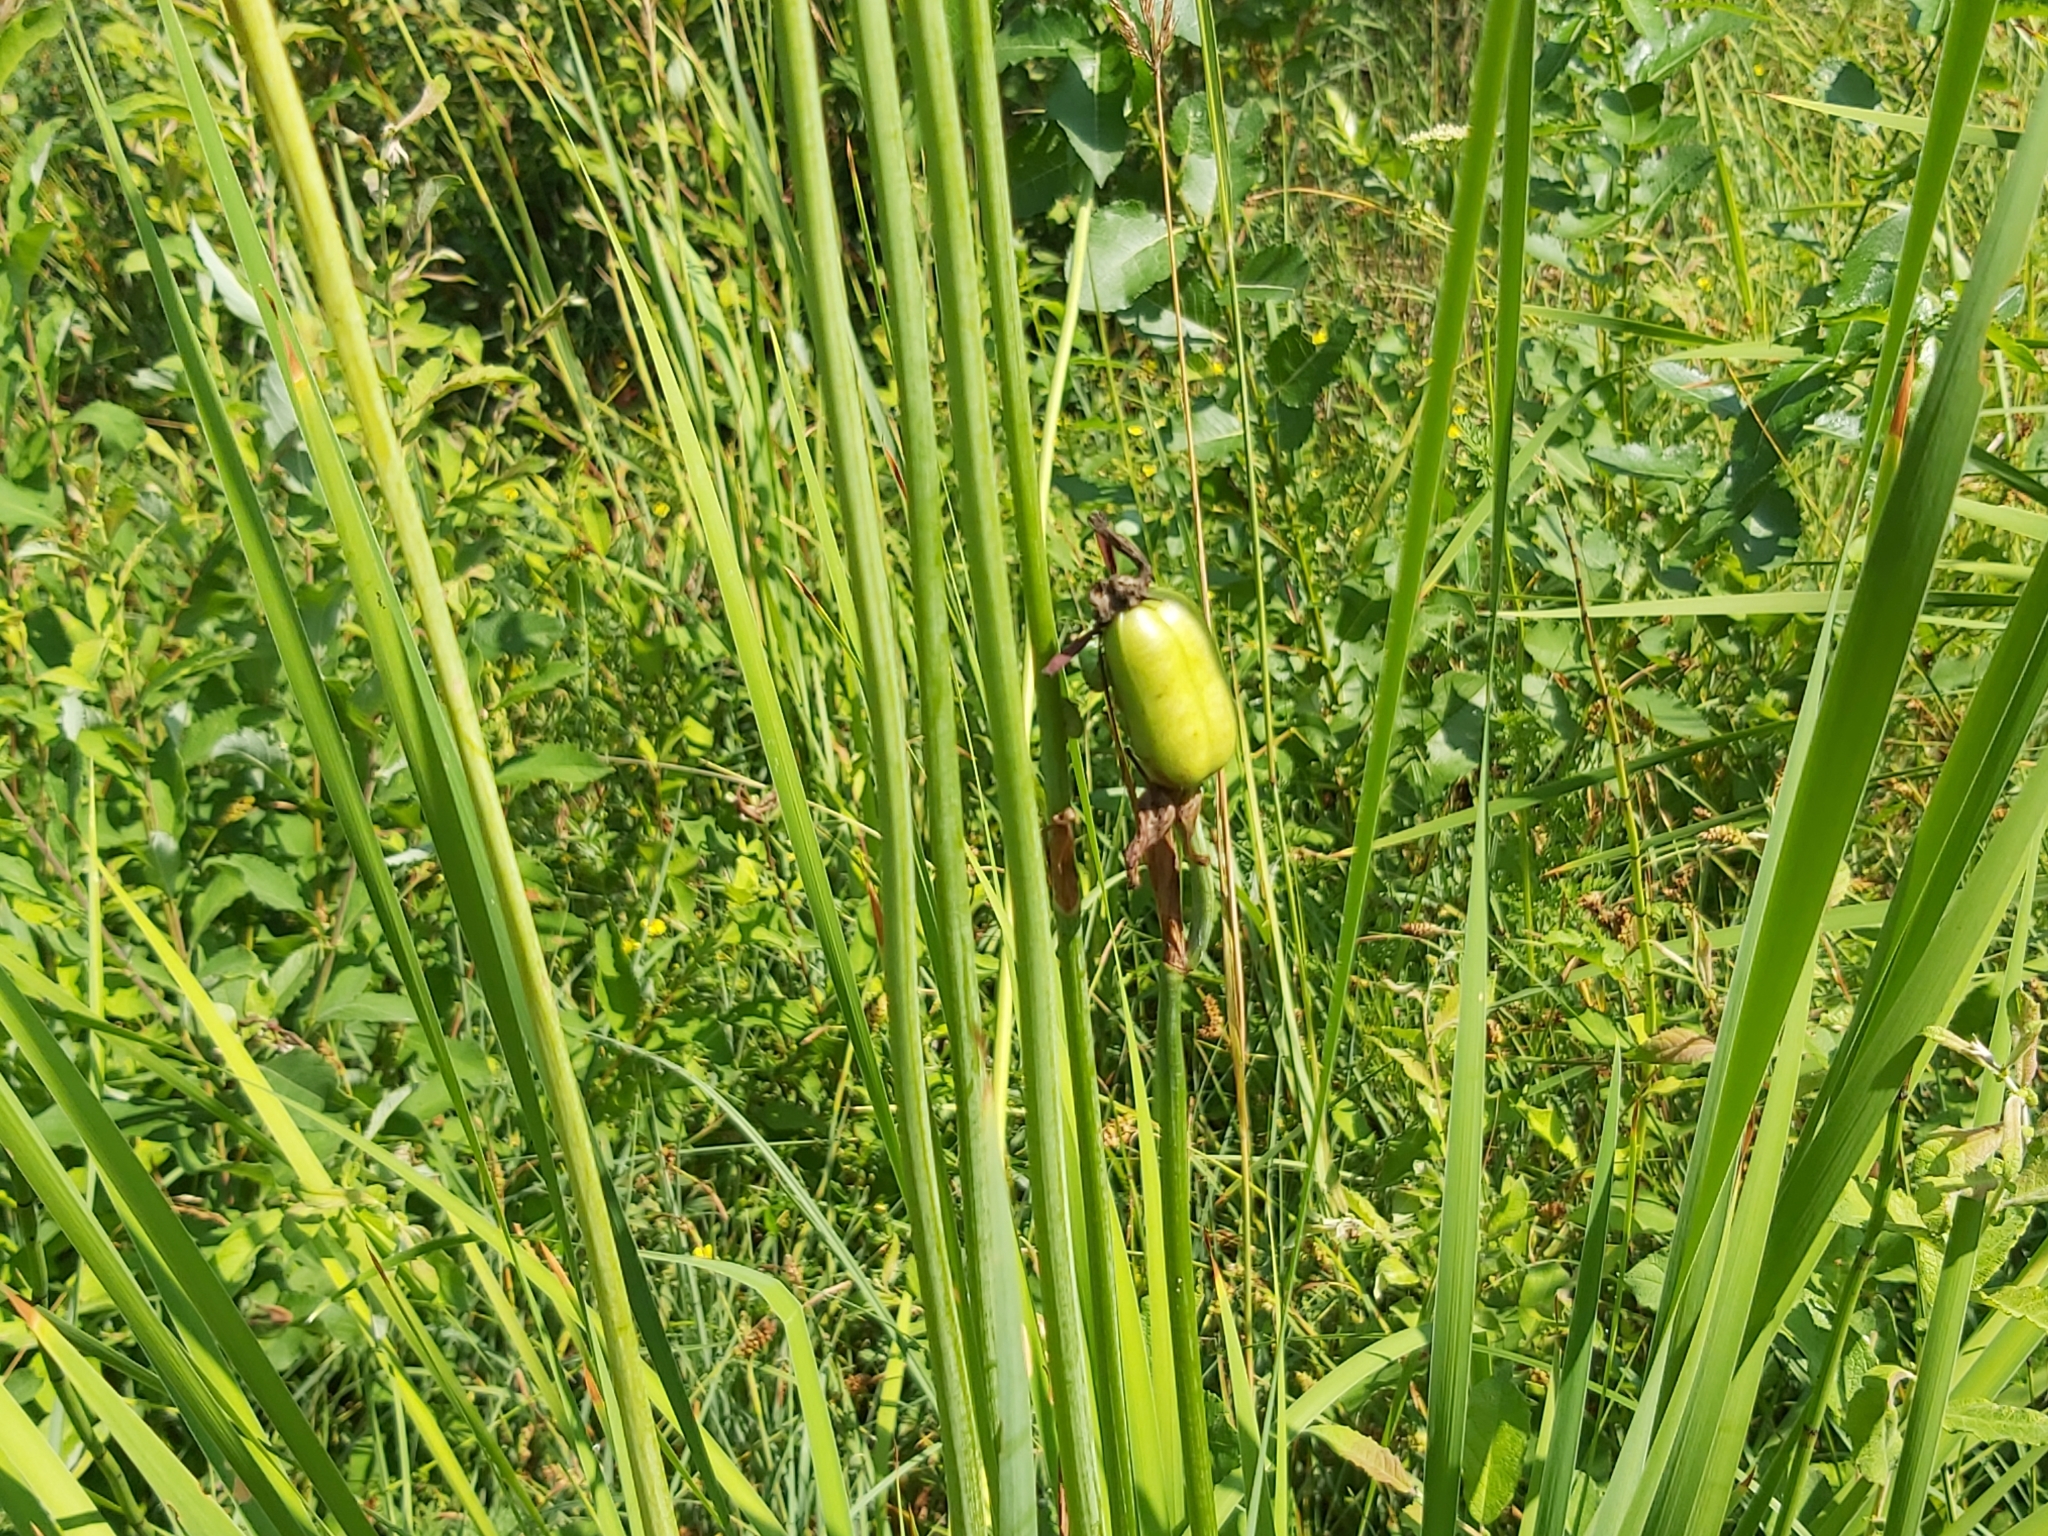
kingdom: Plantae
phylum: Tracheophyta
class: Liliopsida
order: Asparagales
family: Iridaceae
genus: Iris
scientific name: Iris sibirica
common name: Siberian iris
